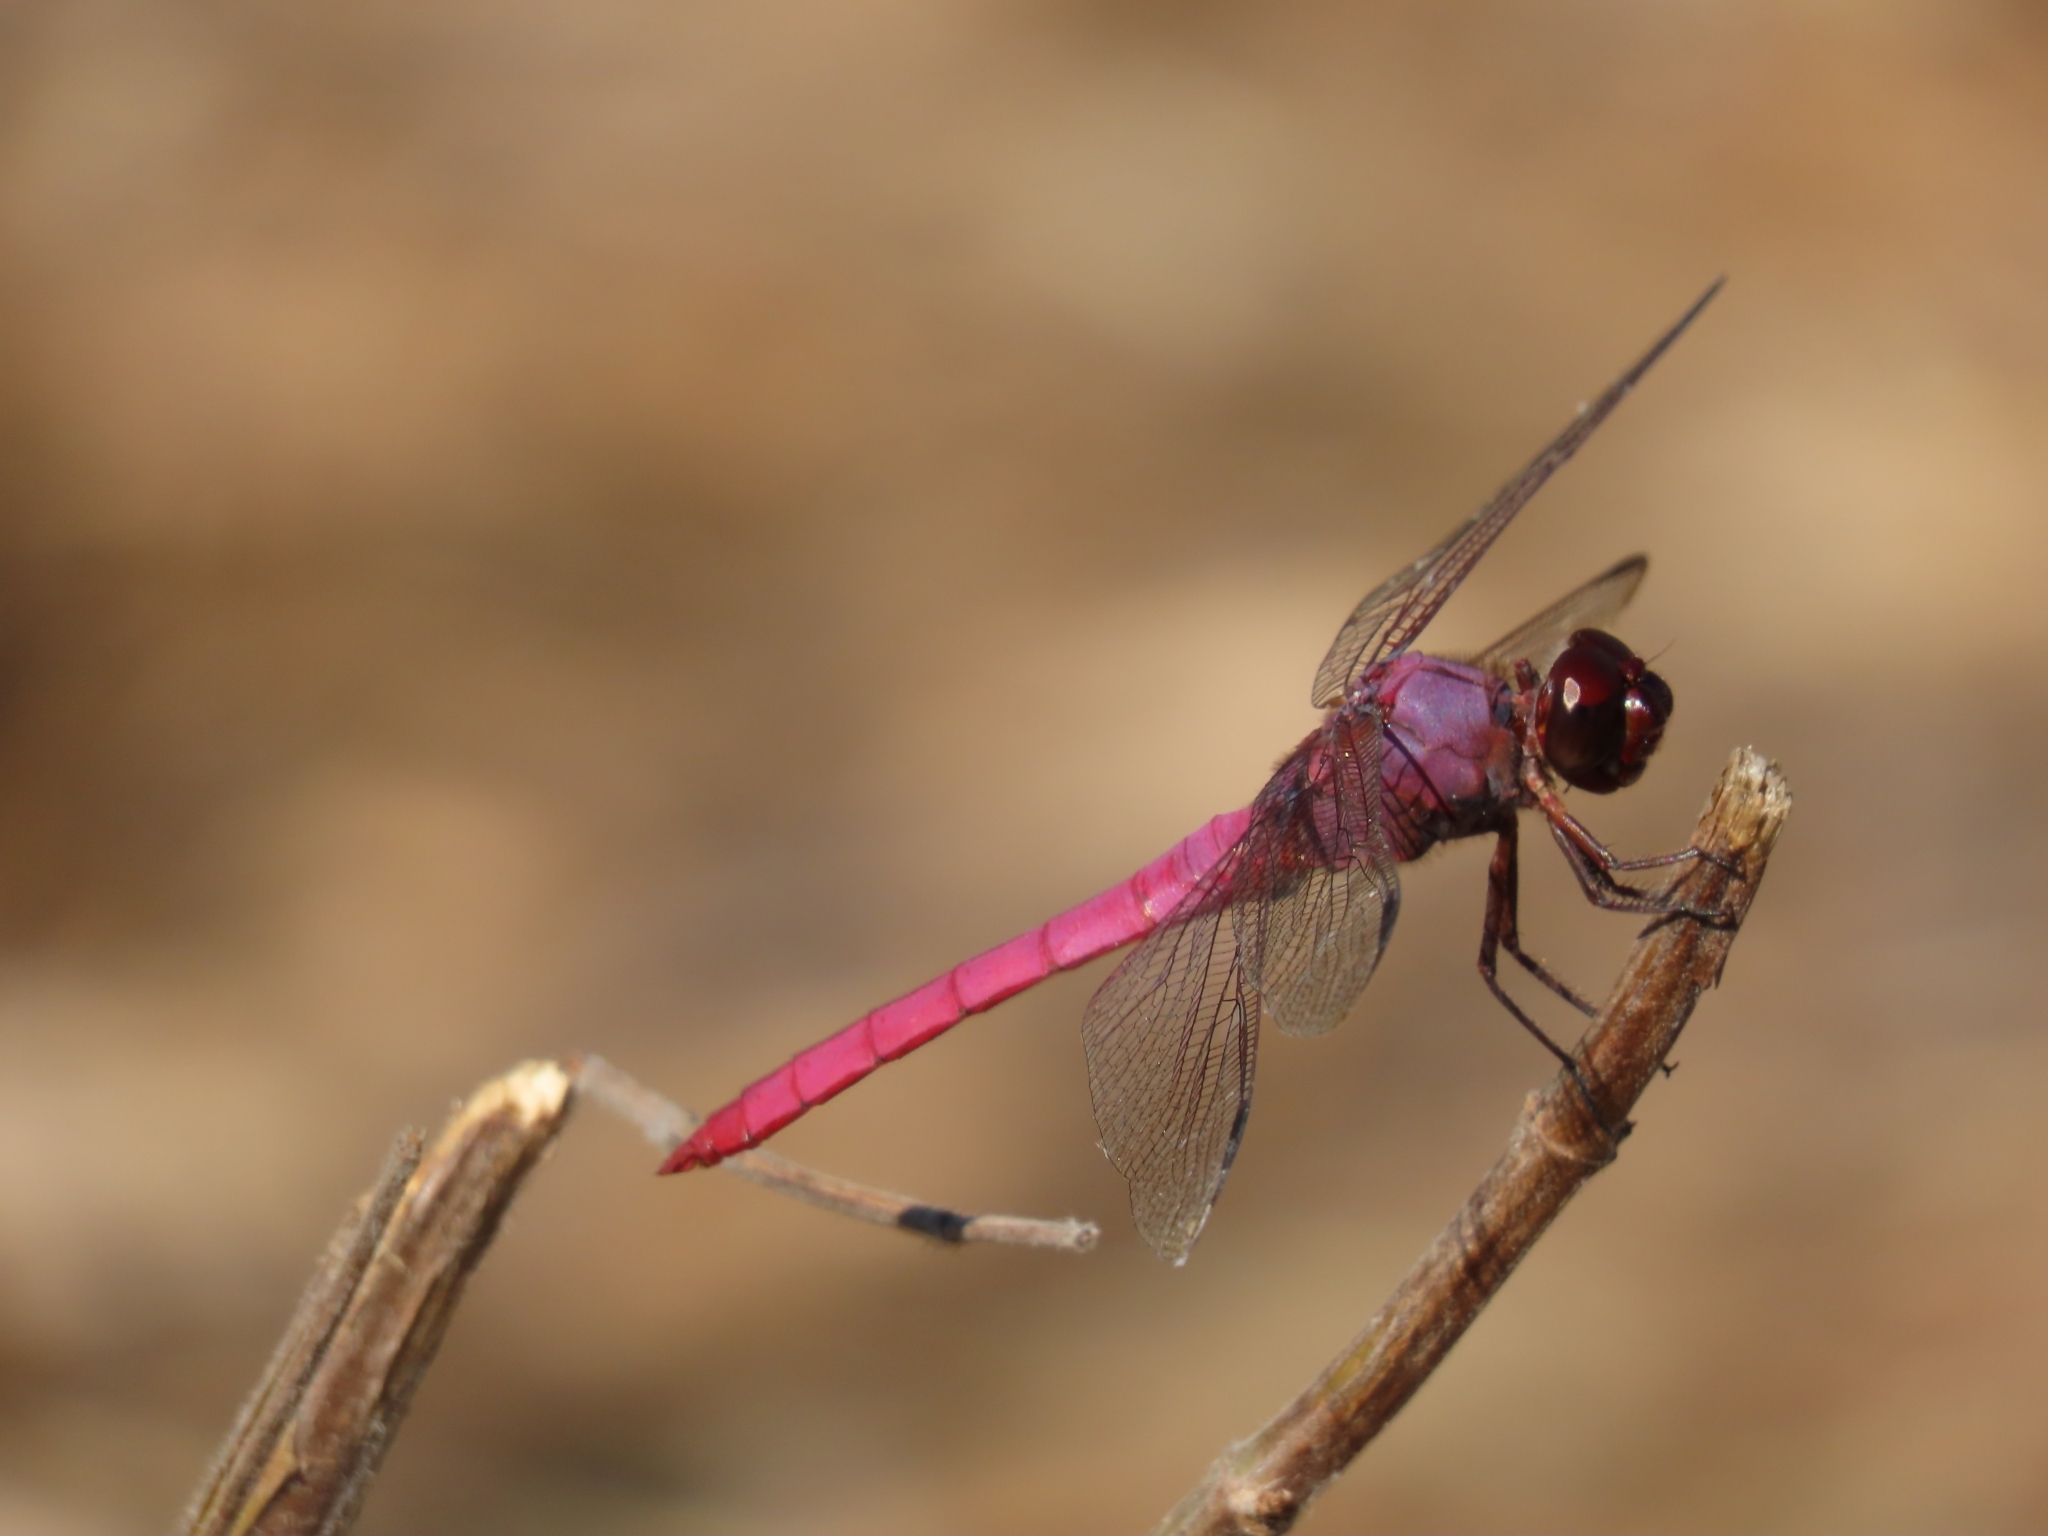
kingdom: Animalia
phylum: Arthropoda
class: Insecta
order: Odonata
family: Libellulidae
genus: Orthemis
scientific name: Orthemis ferruginea
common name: Roseate skimmer
